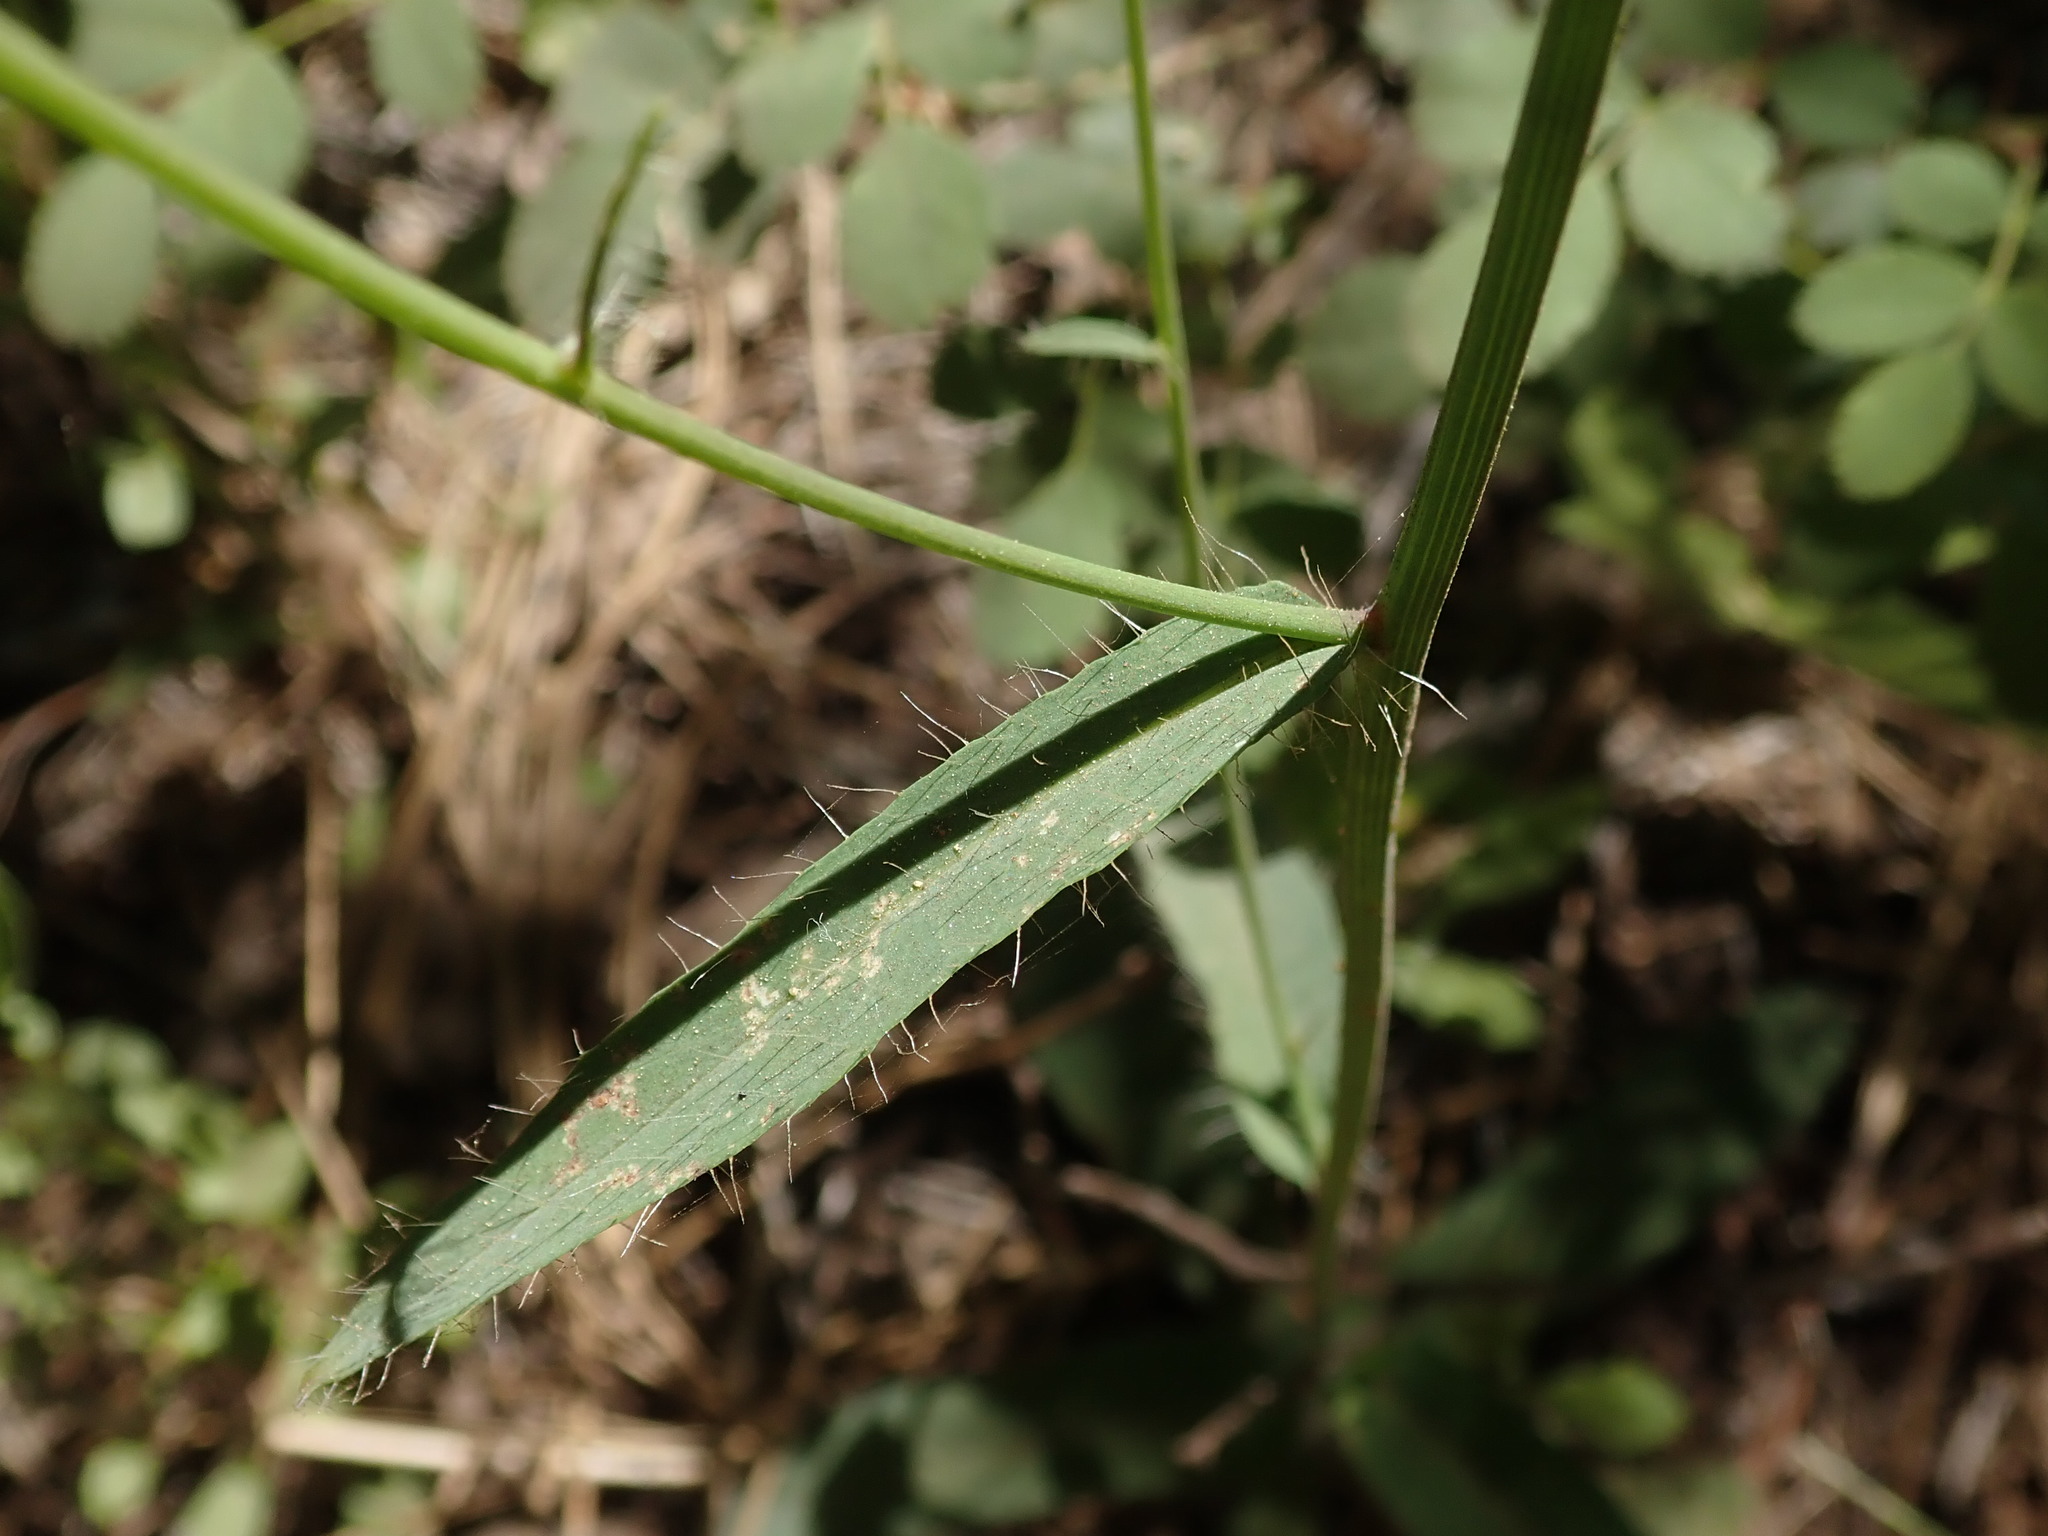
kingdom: Plantae
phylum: Tracheophyta
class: Magnoliopsida
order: Asterales
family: Asteraceae
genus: Hieracium
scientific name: Hieracium albiflorum
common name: White hawkweed
